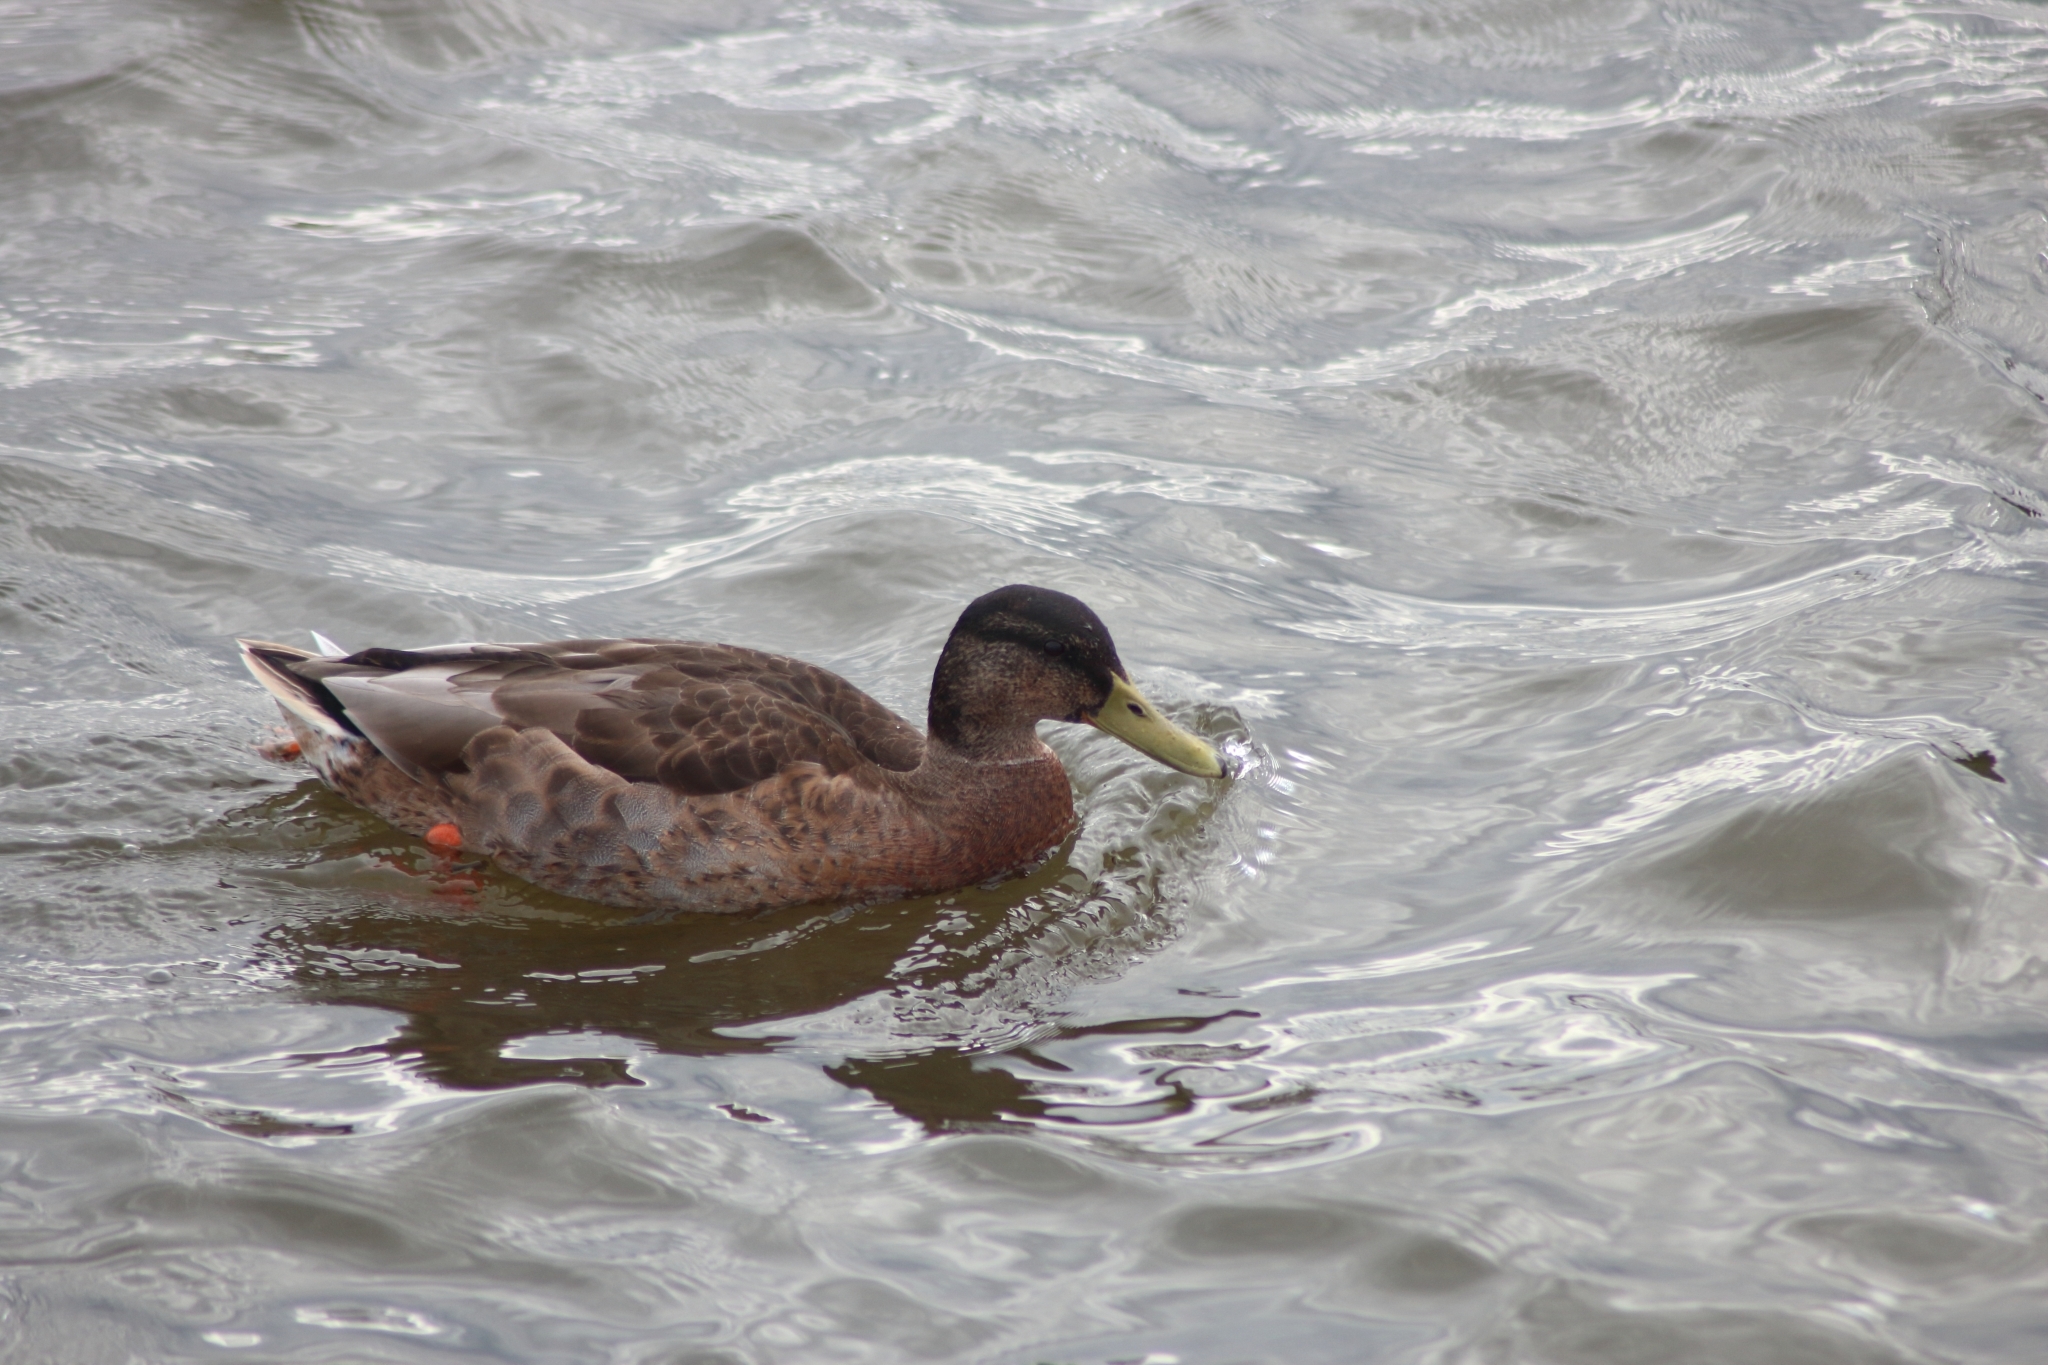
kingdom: Animalia
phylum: Chordata
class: Aves
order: Anseriformes
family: Anatidae
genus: Anas
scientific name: Anas platyrhynchos
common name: Mallard
